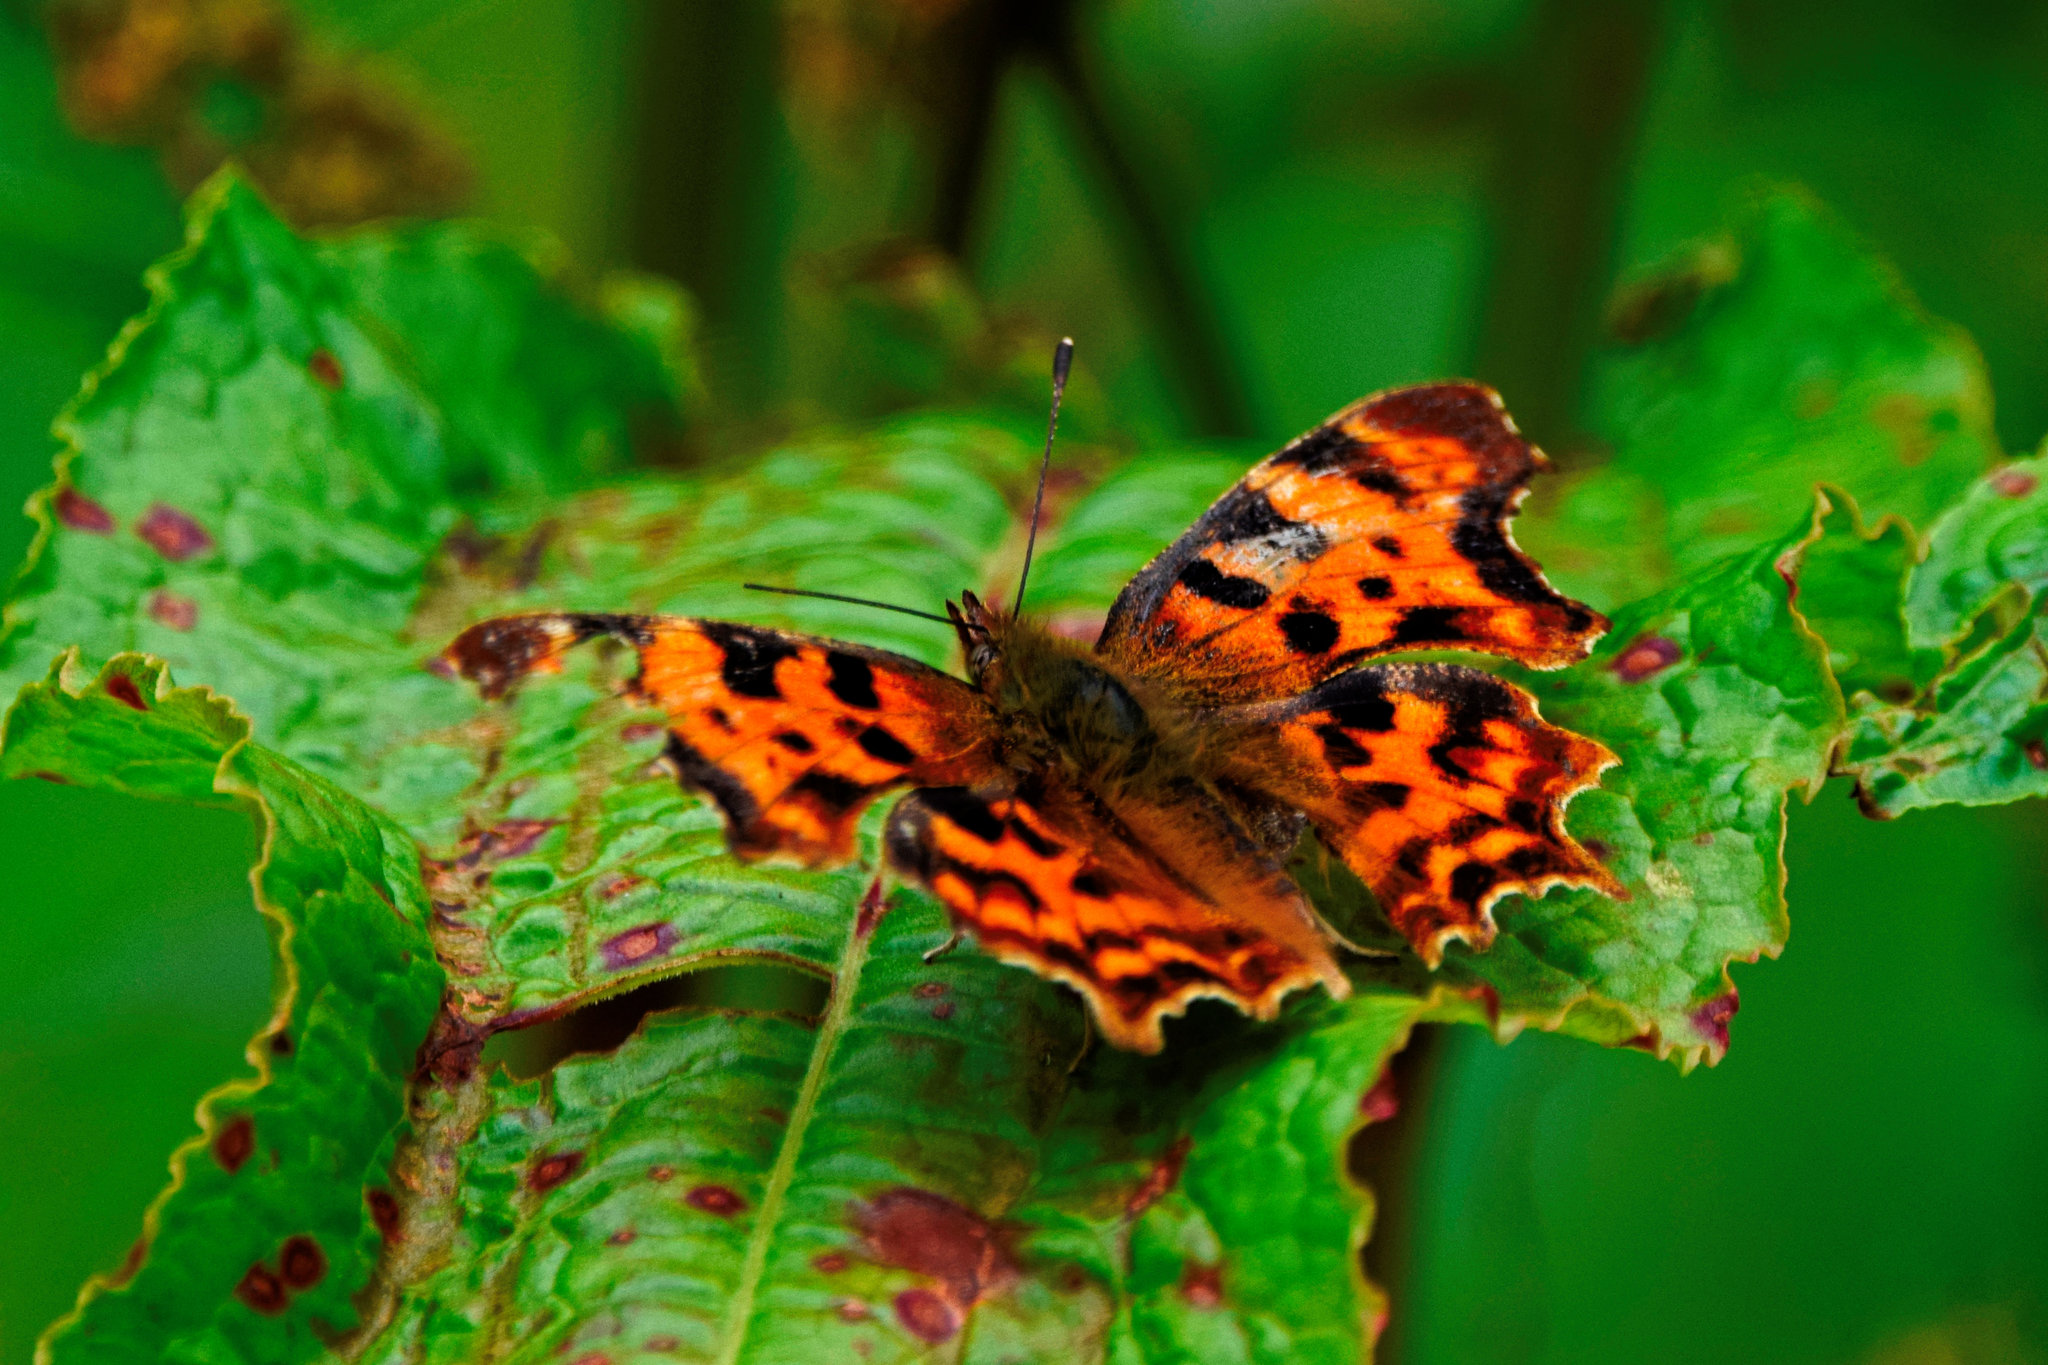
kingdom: Animalia
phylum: Arthropoda
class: Insecta
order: Lepidoptera
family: Nymphalidae
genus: Polygonia
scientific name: Polygonia c-album
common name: Comma
